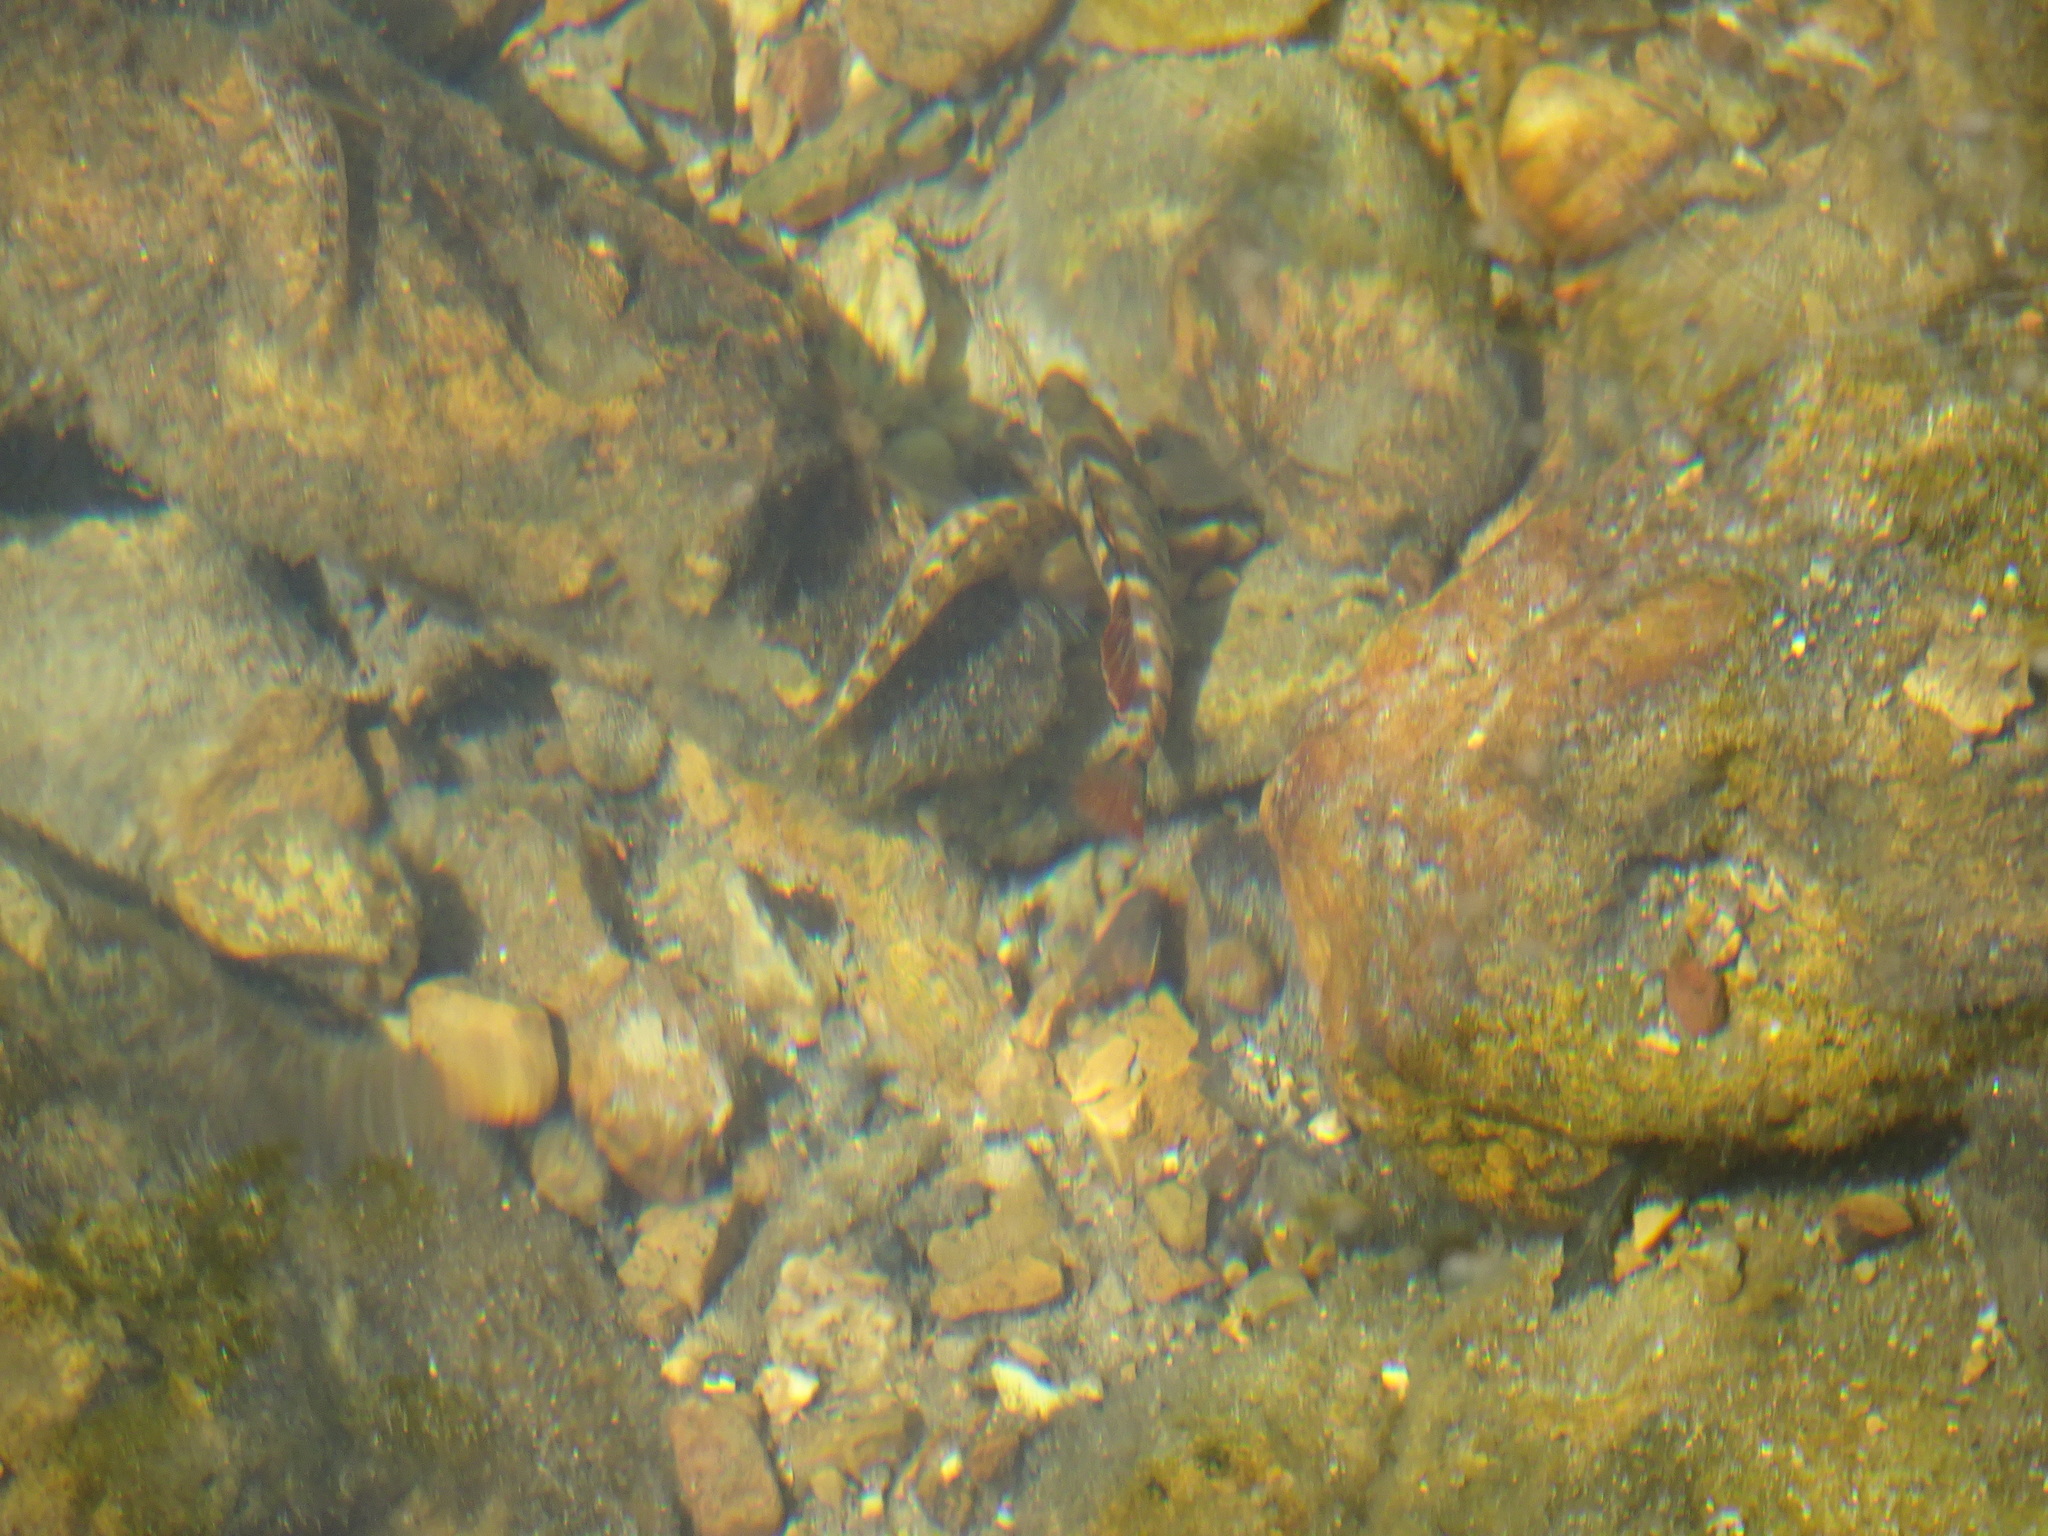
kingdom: Animalia
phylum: Chordata
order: Perciformes
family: Percidae
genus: Etheostoma
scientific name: Etheostoma caeruleum
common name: Rainbow darter
